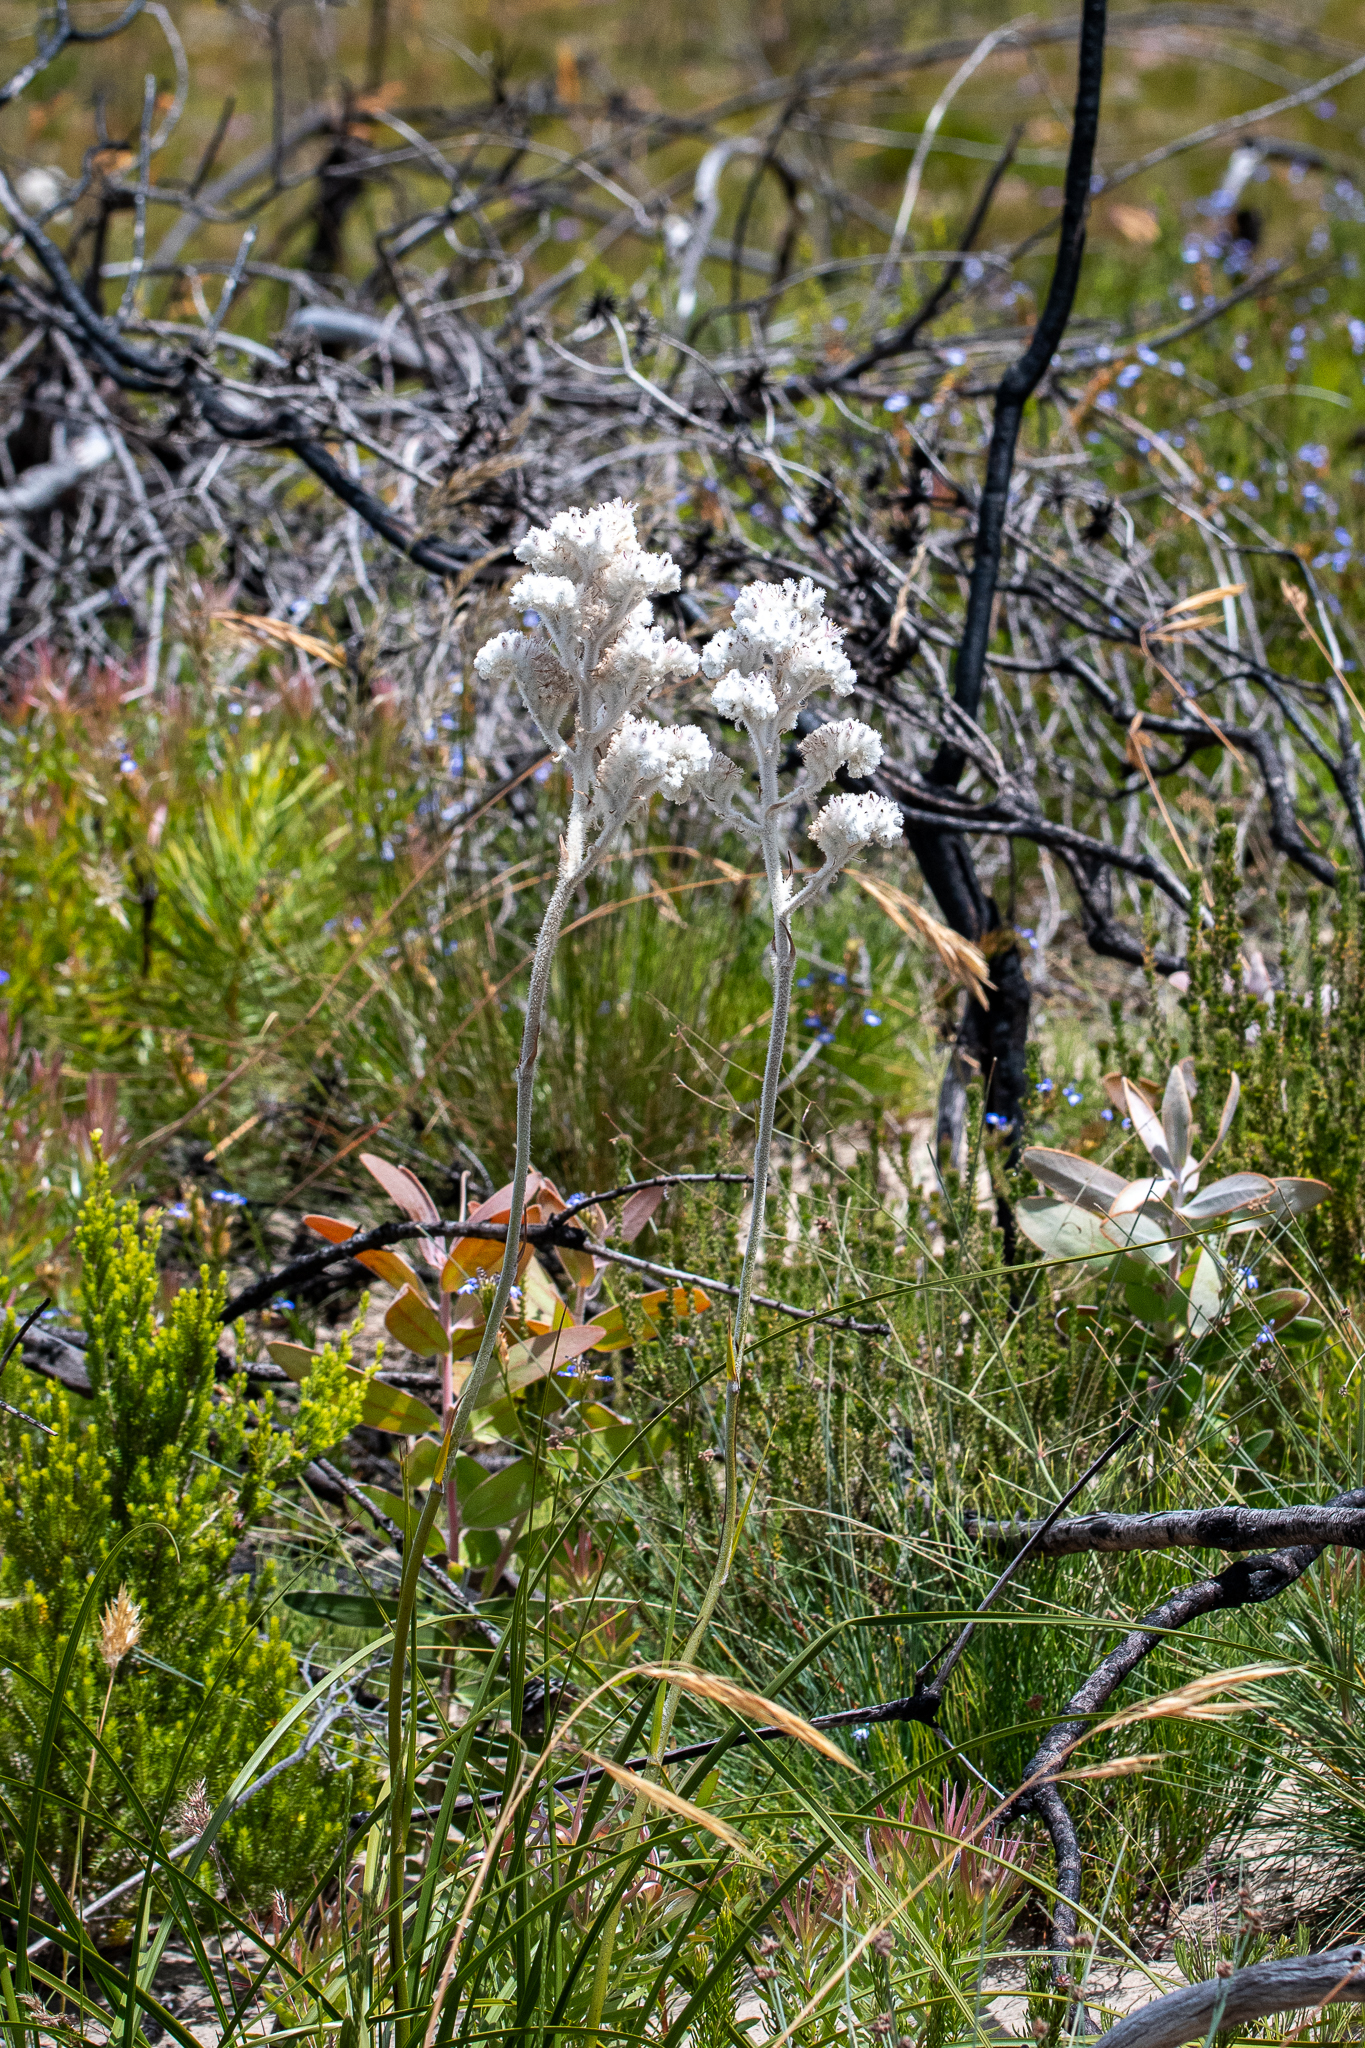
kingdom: Plantae
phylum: Tracheophyta
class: Liliopsida
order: Asparagales
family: Lanariaceae
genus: Lanaria
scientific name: Lanaria lanata
